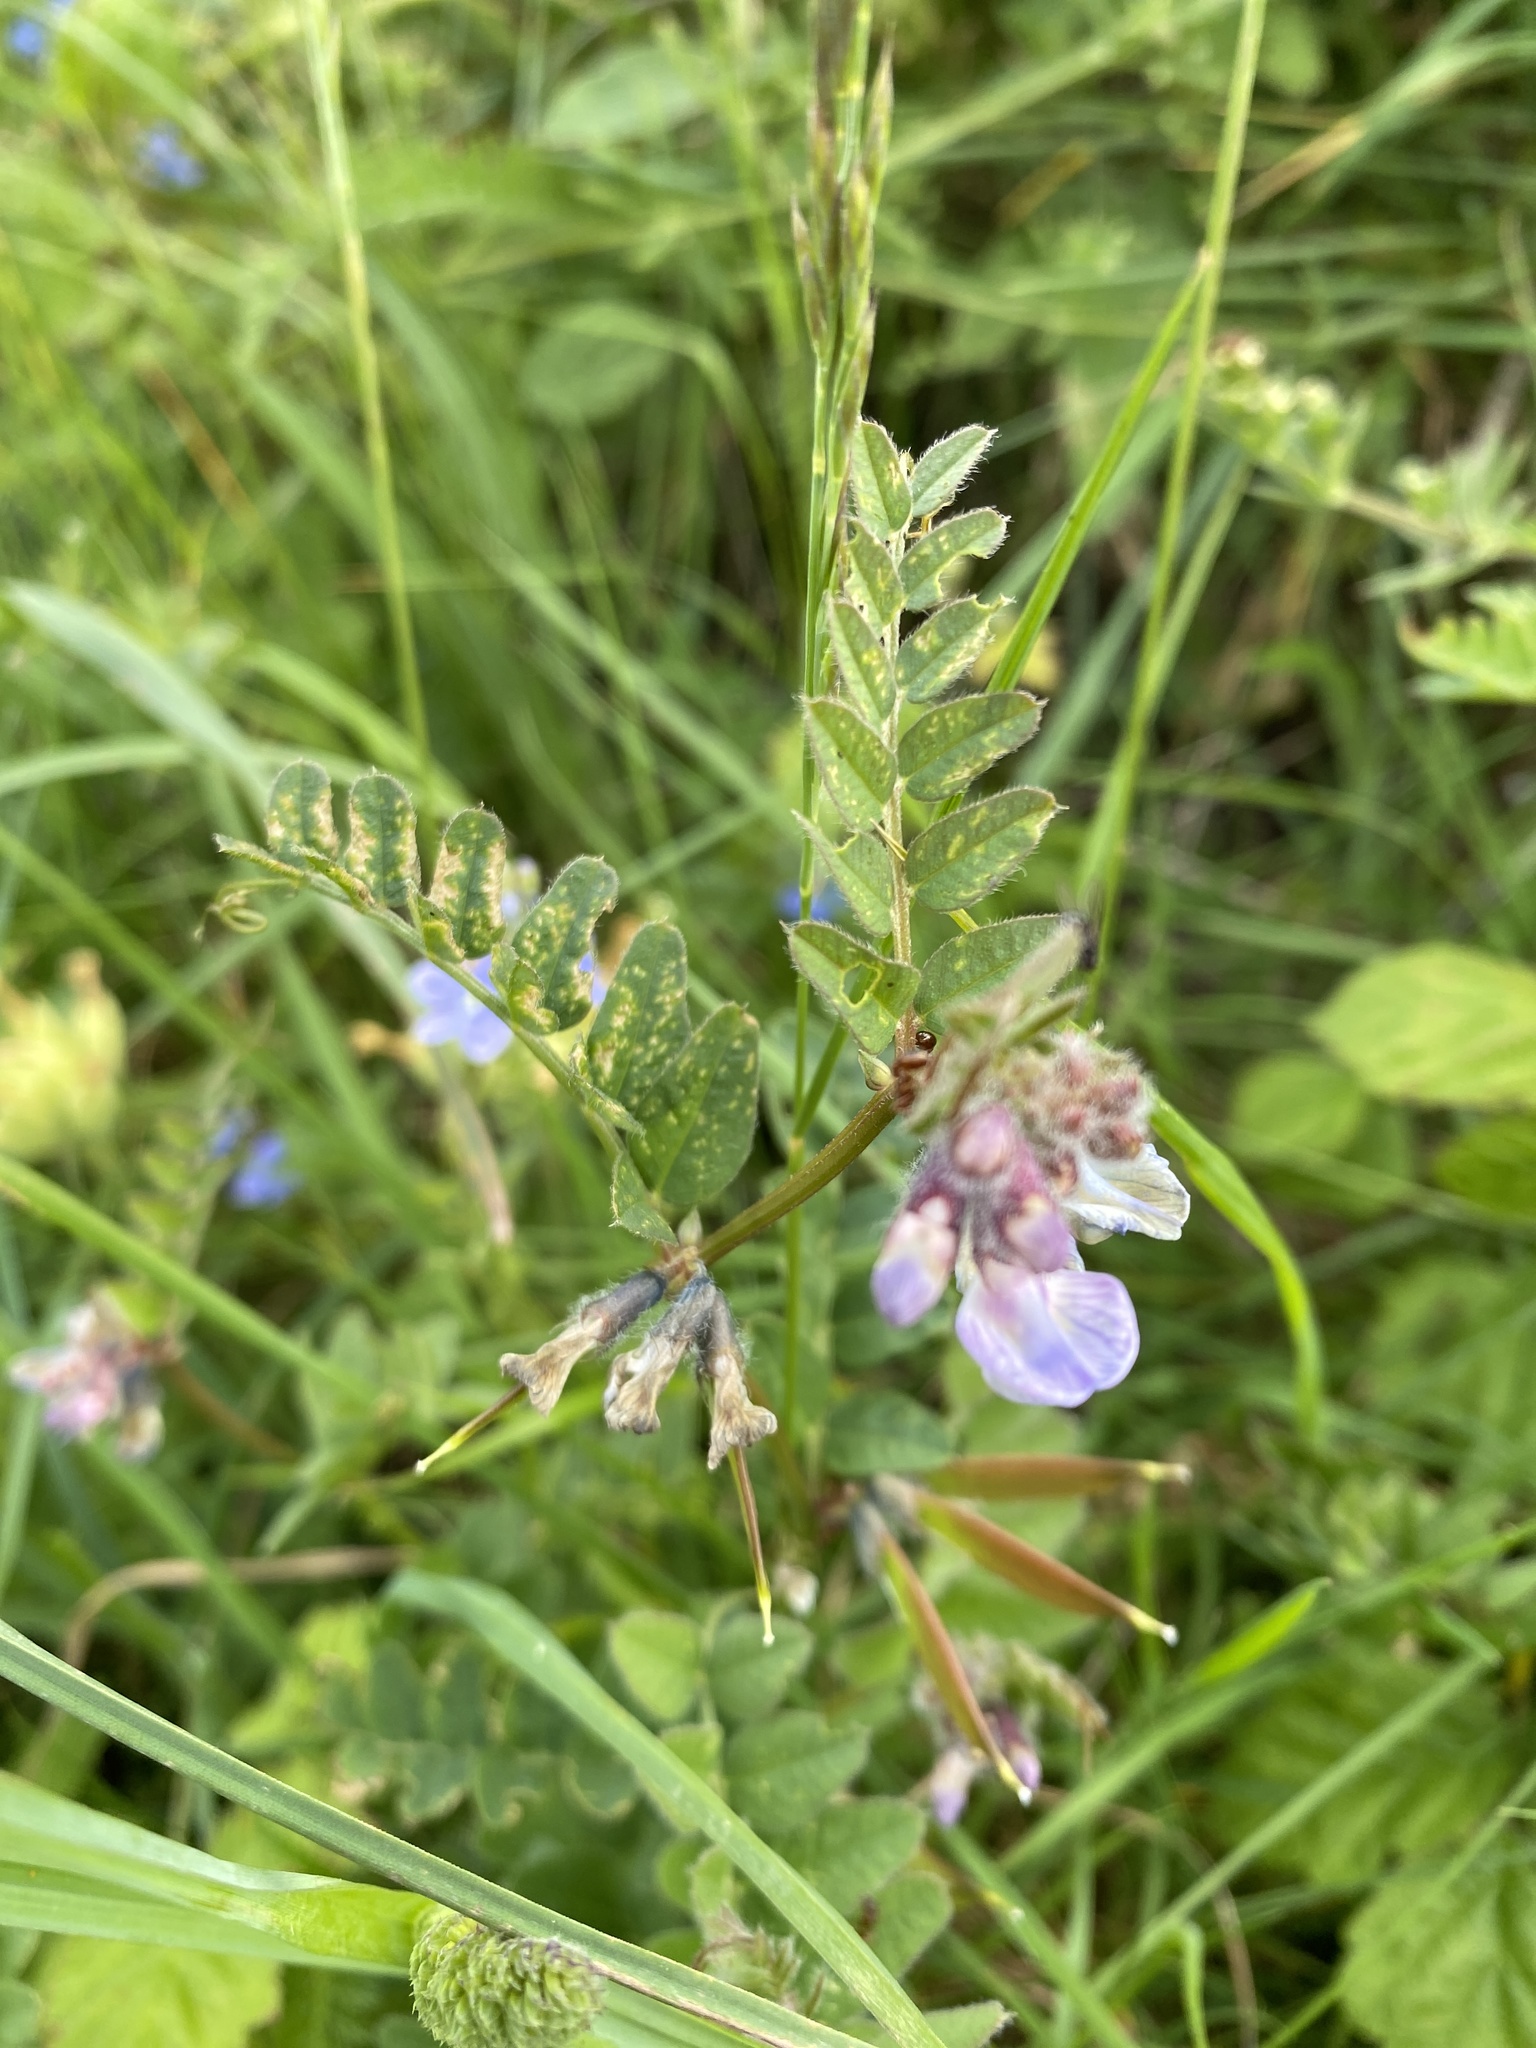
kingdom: Plantae
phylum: Tracheophyta
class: Magnoliopsida
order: Fabales
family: Fabaceae
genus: Vicia
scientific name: Vicia sepium
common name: Bush vetch
